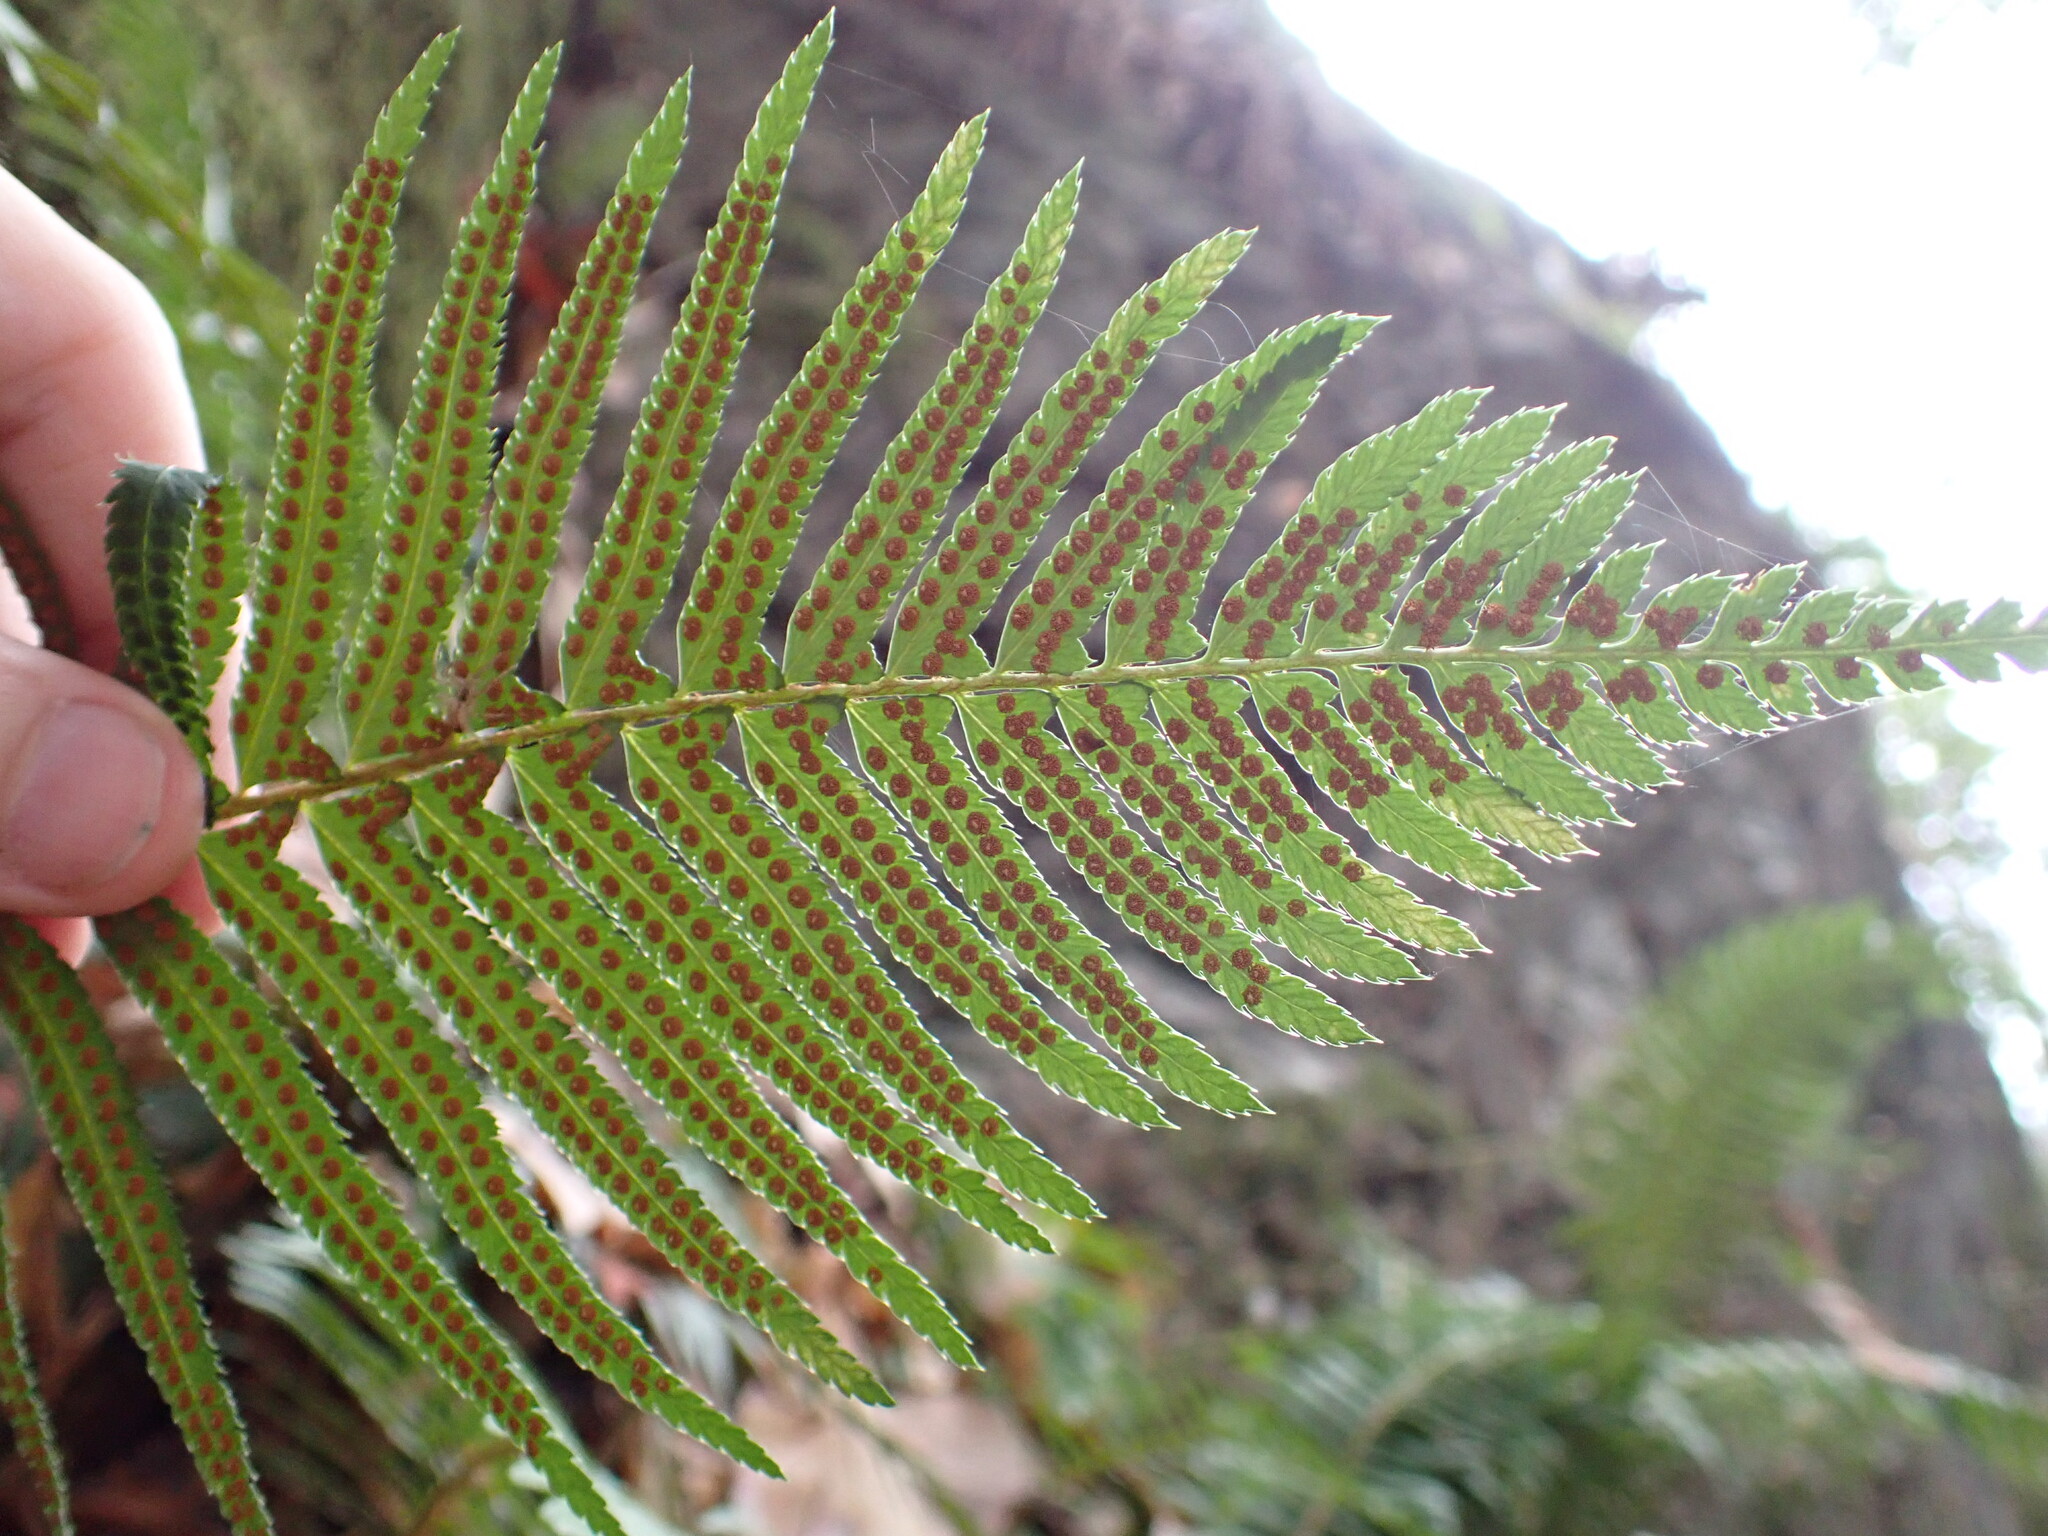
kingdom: Plantae
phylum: Tracheophyta
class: Polypodiopsida
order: Polypodiales
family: Dryopteridaceae
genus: Polystichum
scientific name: Polystichum munitum
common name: Western sword-fern
